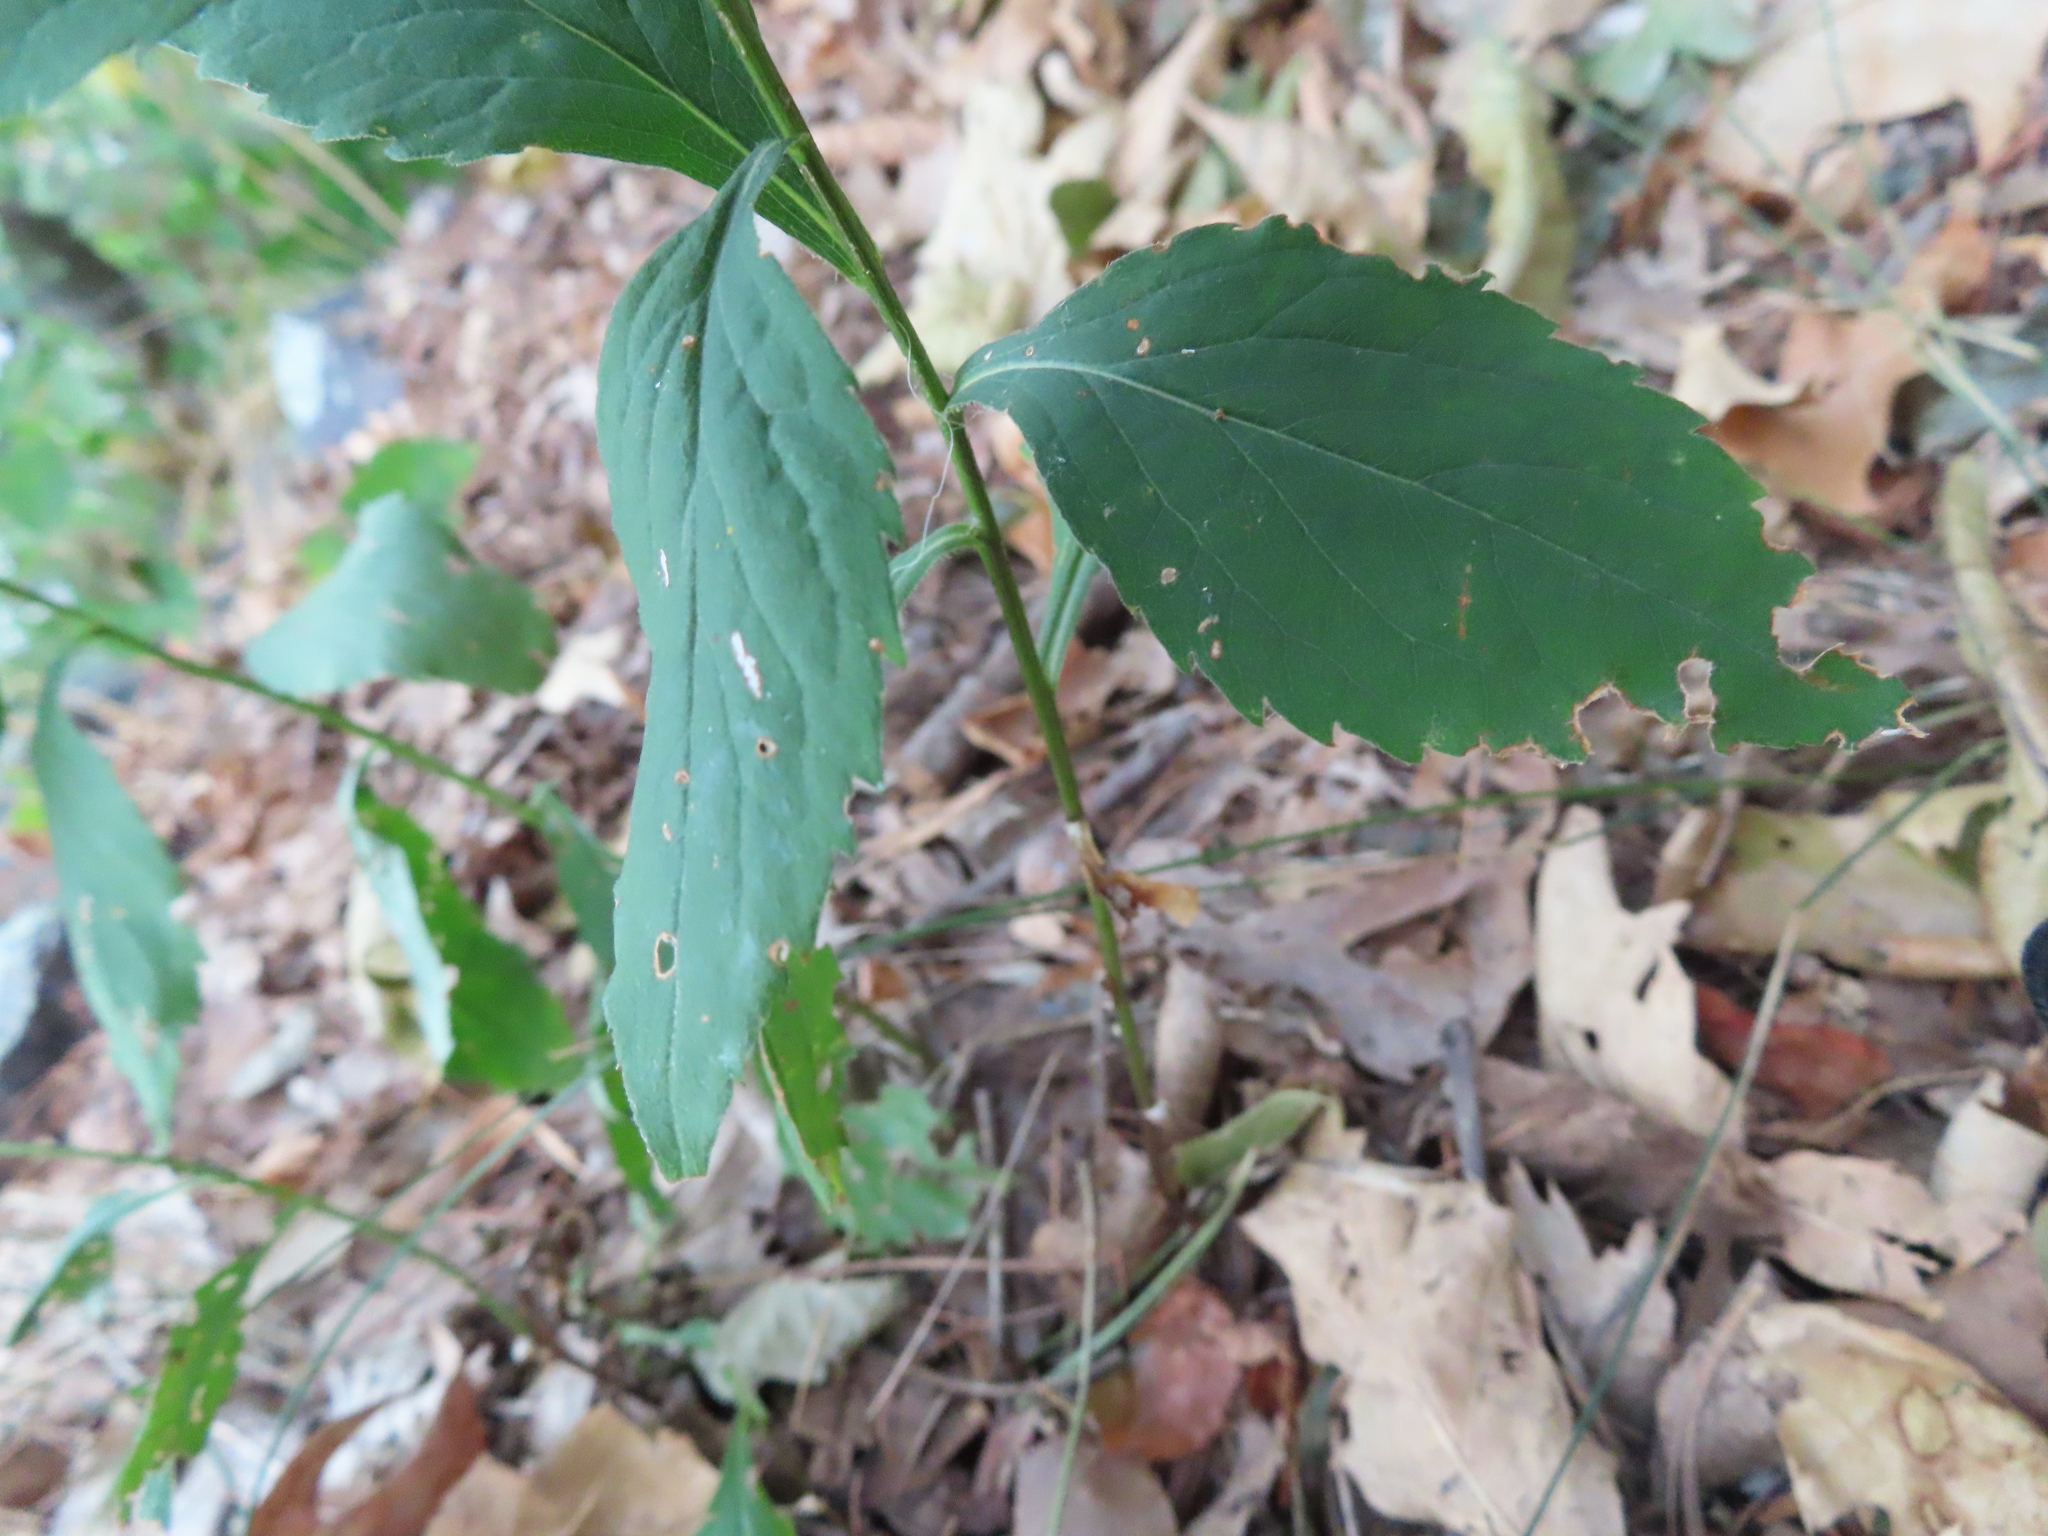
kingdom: Plantae
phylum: Tracheophyta
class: Magnoliopsida
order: Asterales
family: Asteraceae
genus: Solidago
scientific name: Solidago ulmifolia
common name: Elm-leaf goldenrod
